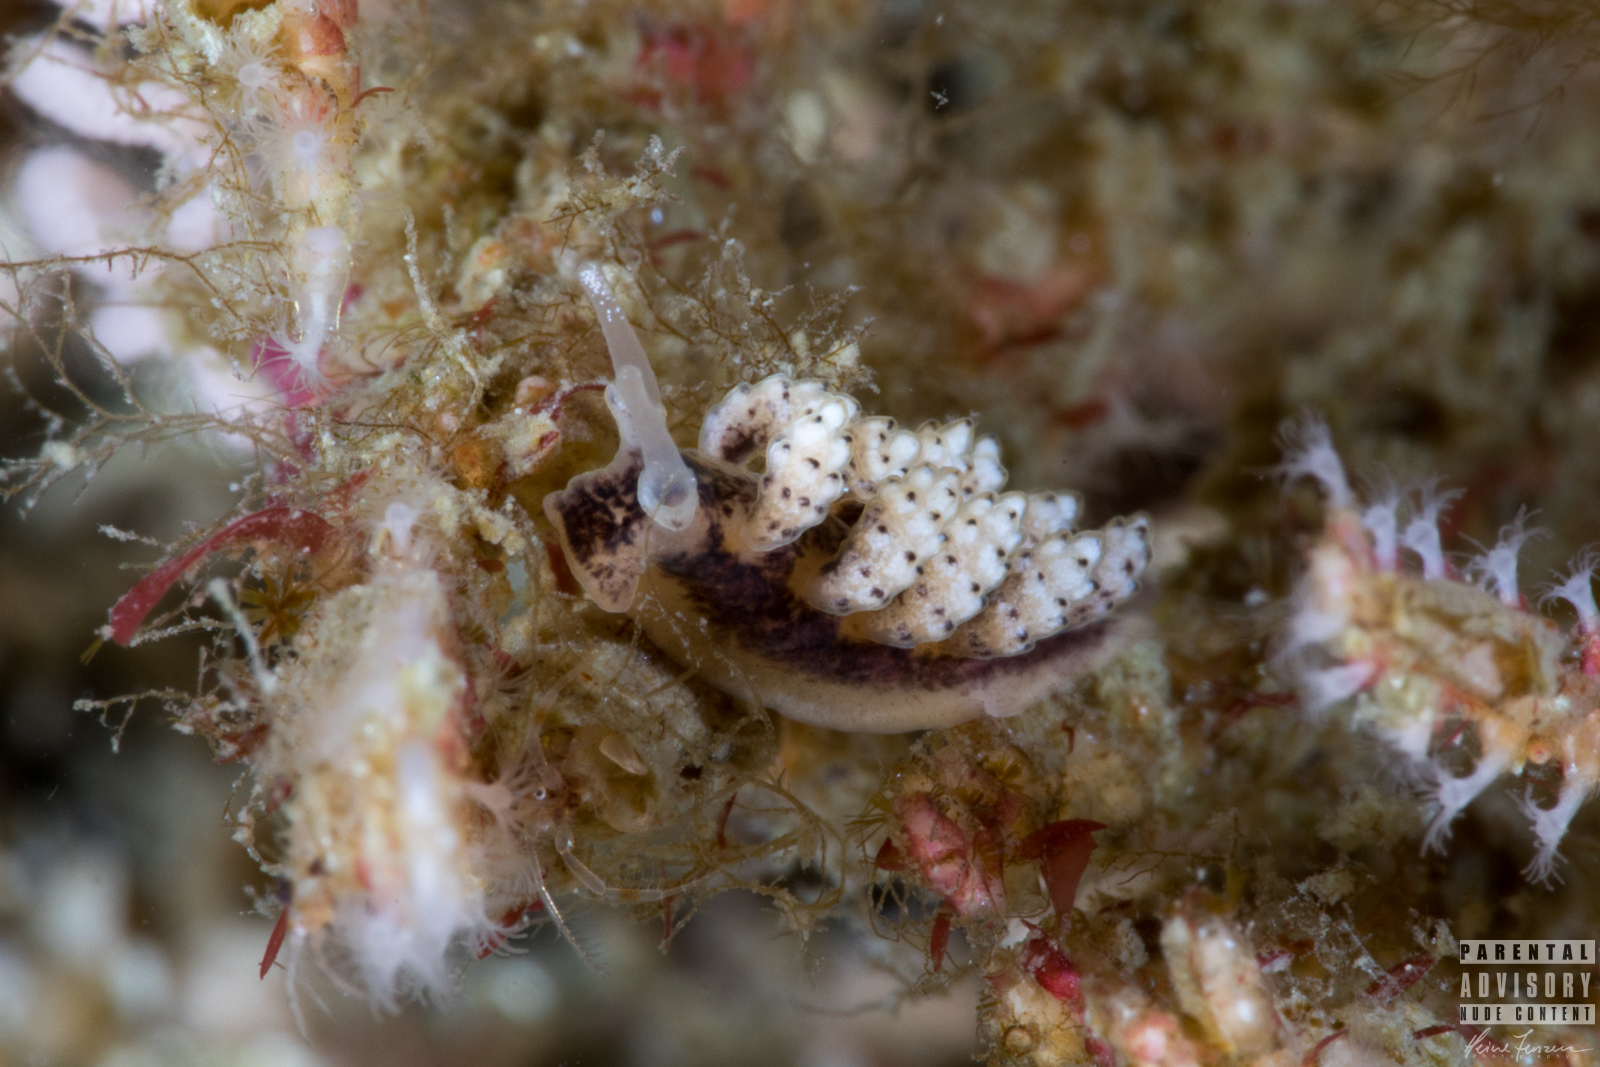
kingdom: Animalia
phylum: Mollusca
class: Gastropoda
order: Nudibranchia
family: Dotidae
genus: Doto
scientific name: Doto coronata
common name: Coronate doto
